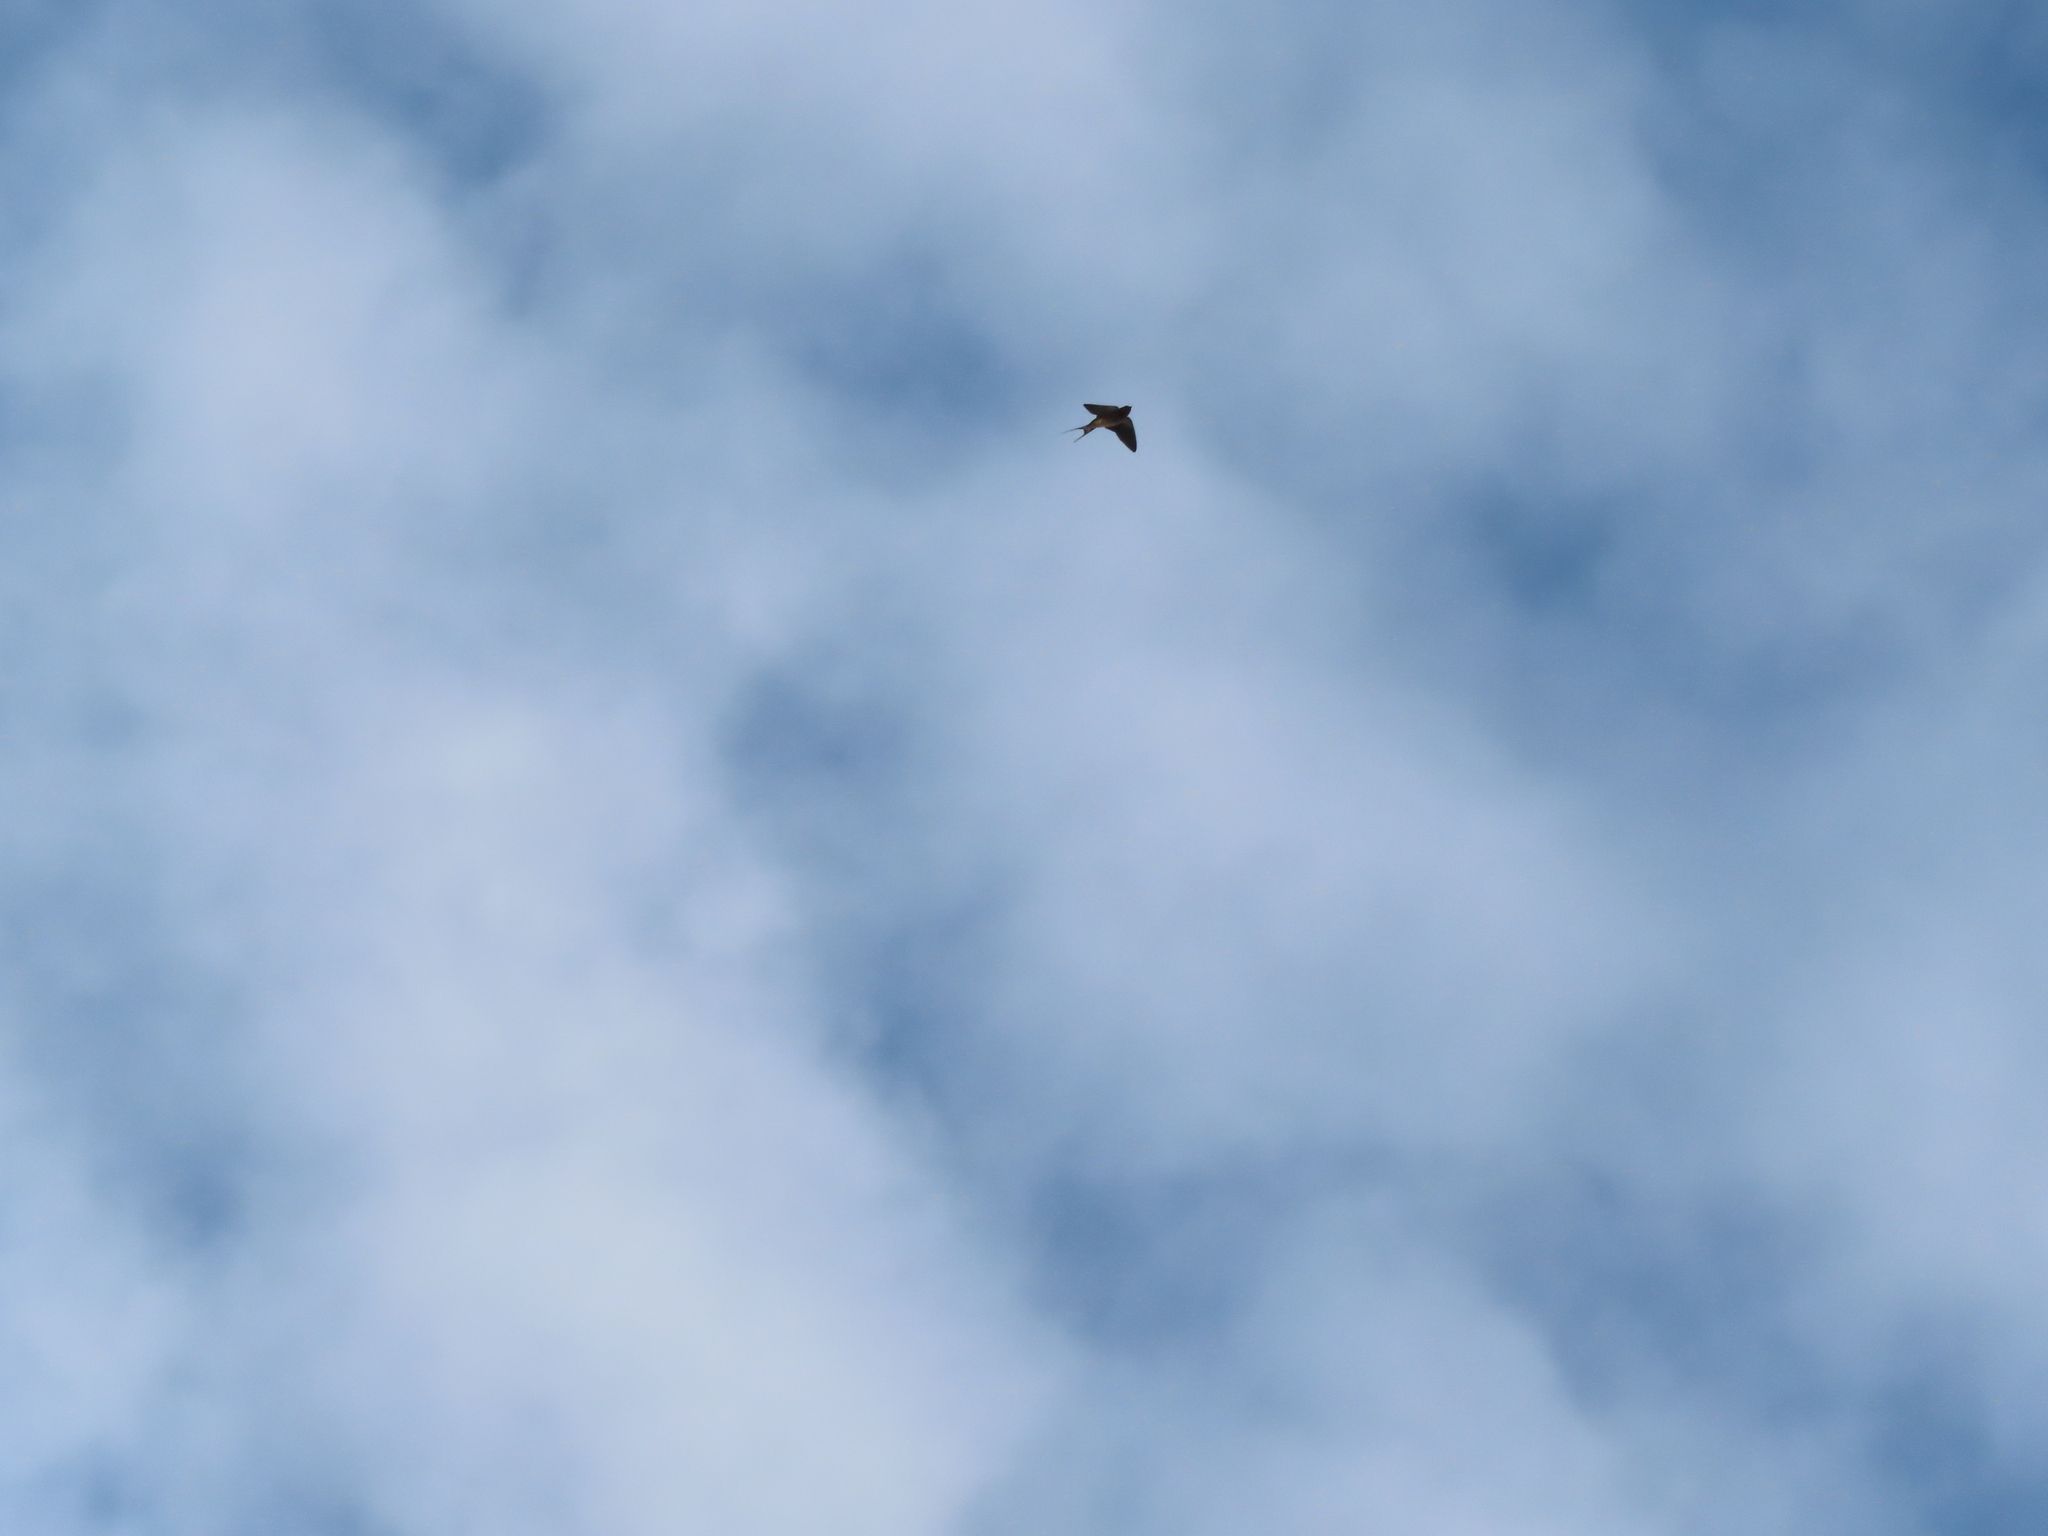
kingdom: Animalia
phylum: Chordata
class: Aves
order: Passeriformes
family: Hirundinidae
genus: Hirundo
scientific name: Hirundo rustica
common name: Barn swallow
